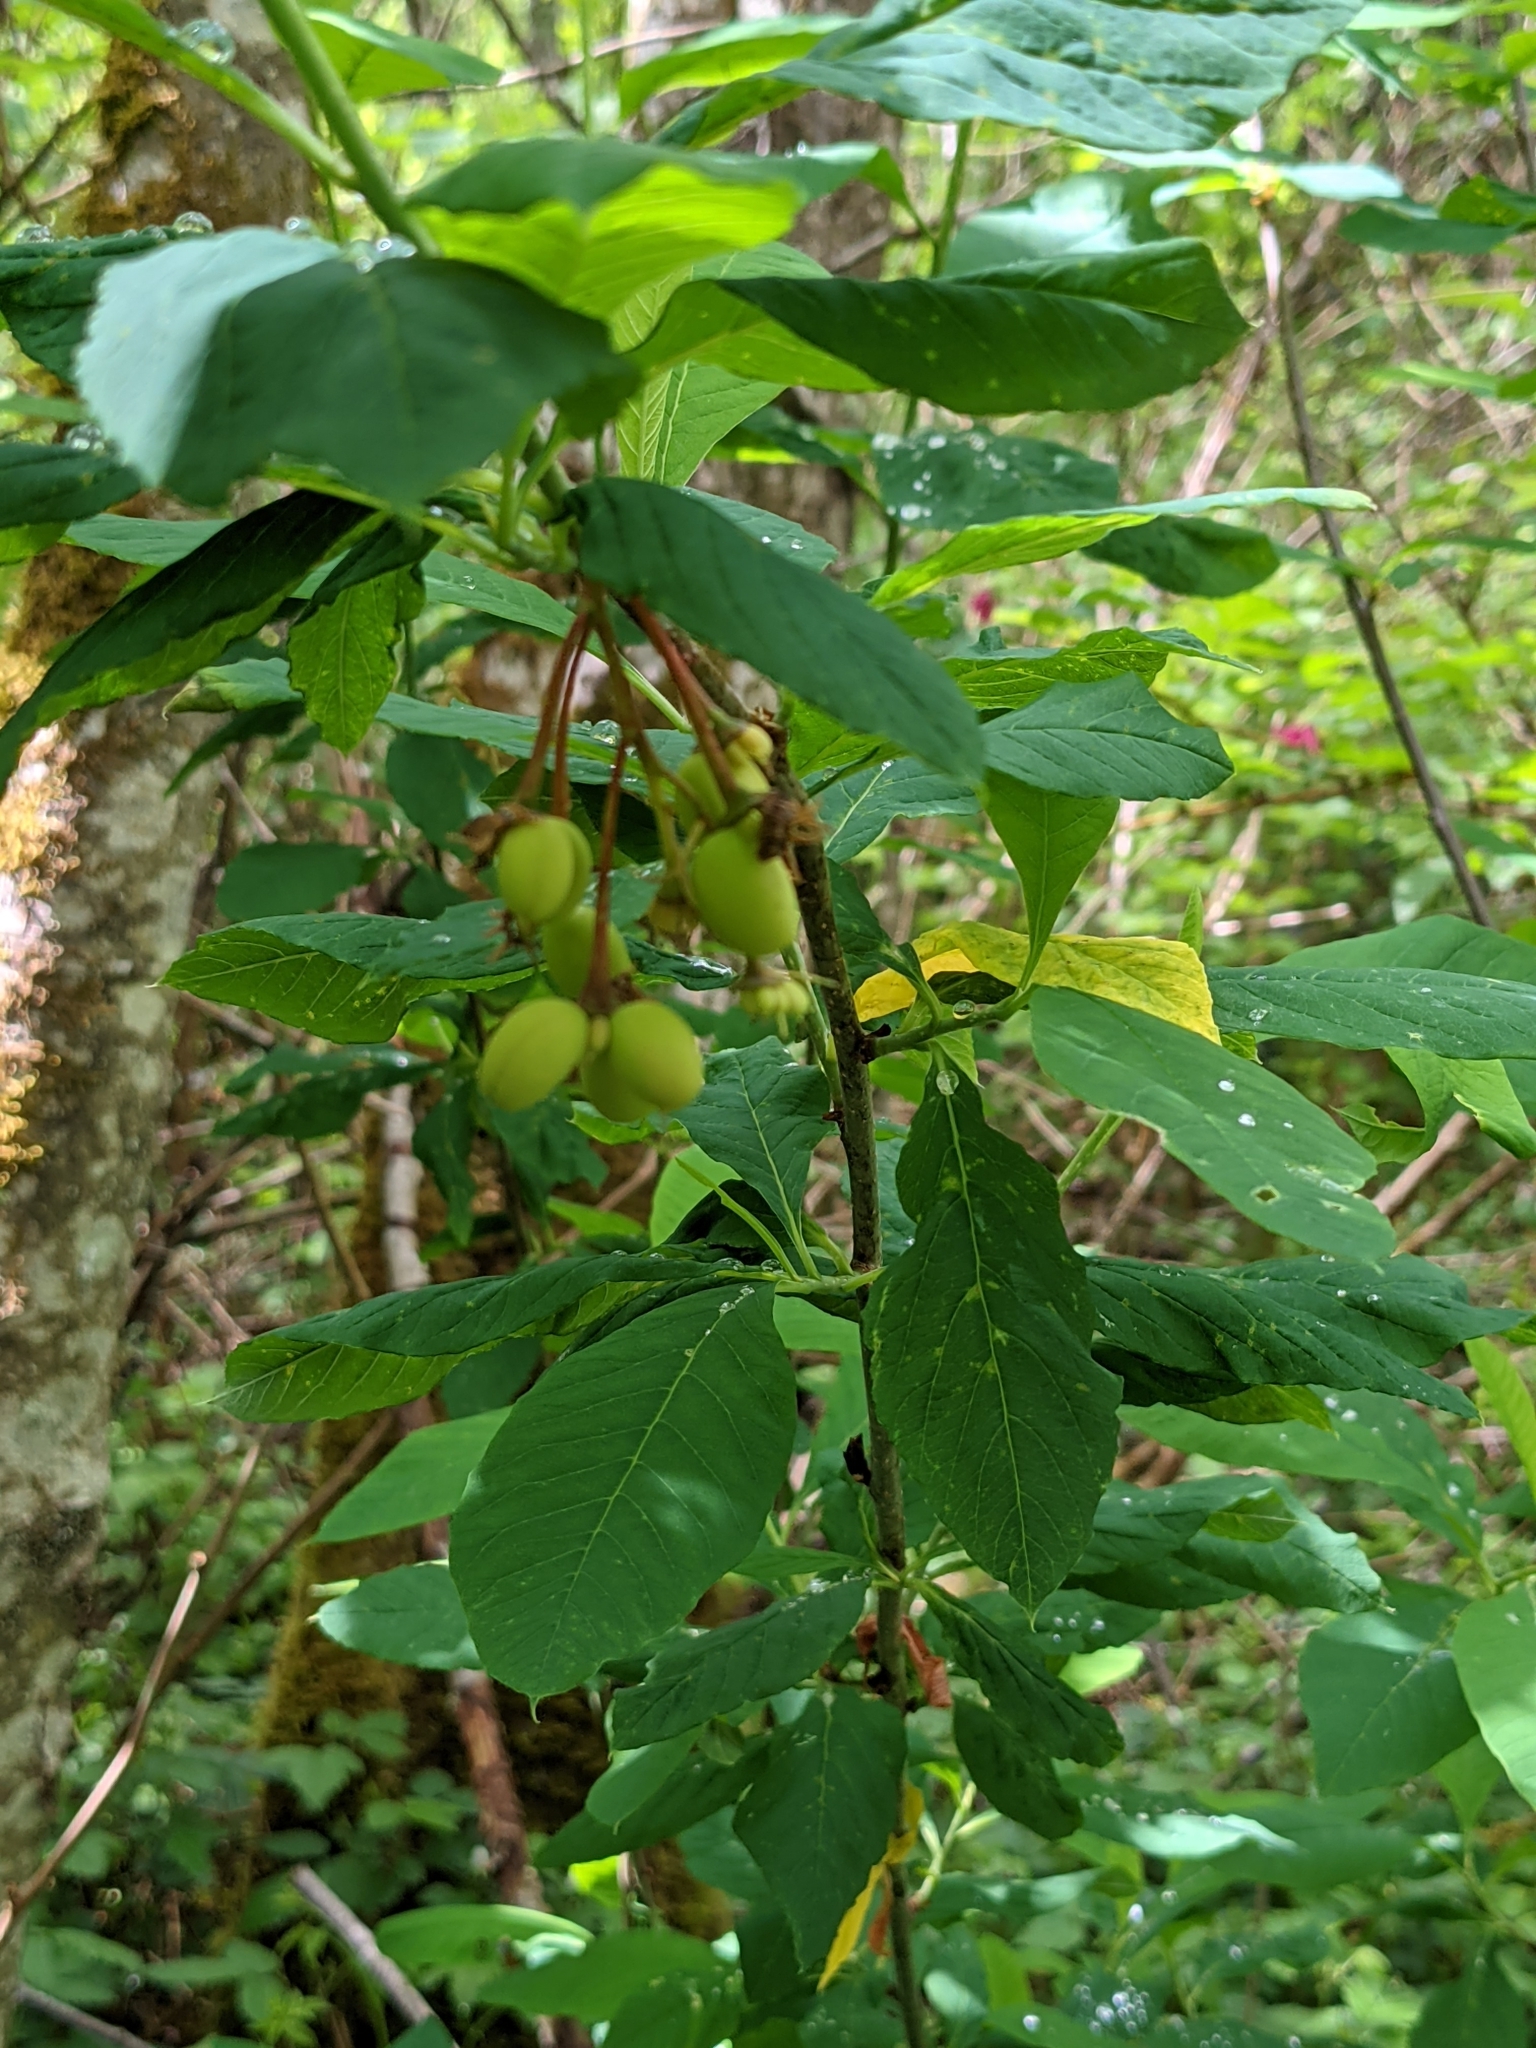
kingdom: Plantae
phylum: Tracheophyta
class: Magnoliopsida
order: Rosales
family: Rosaceae
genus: Oemleria
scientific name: Oemleria cerasiformis
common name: Osoberry
